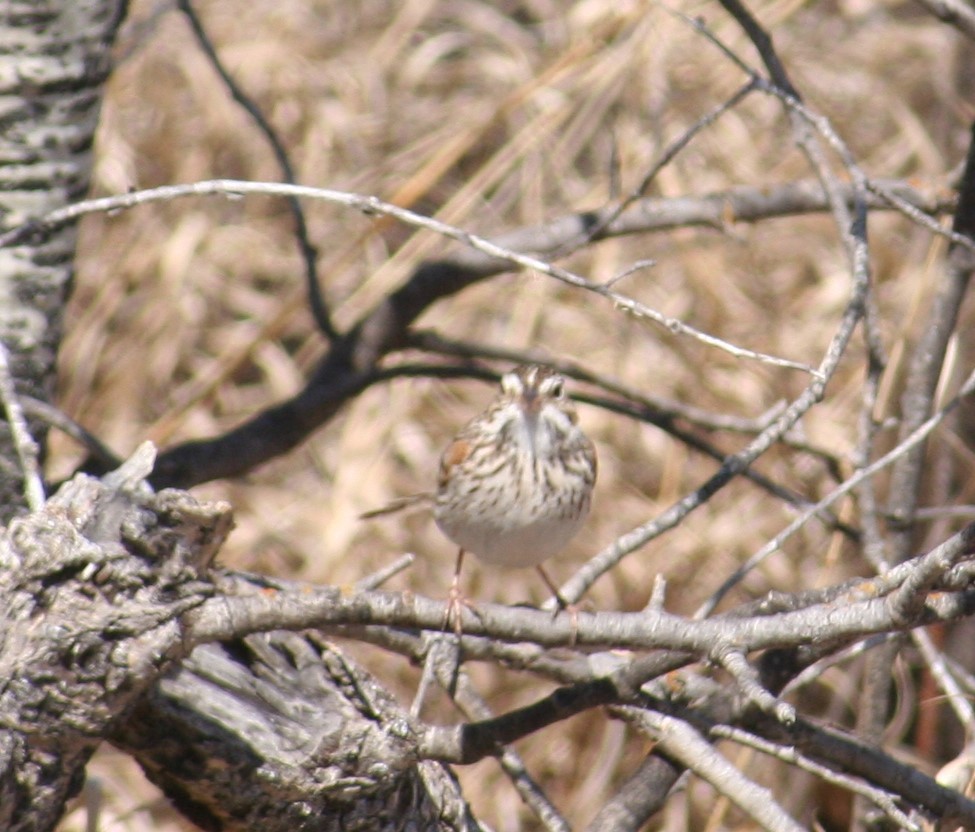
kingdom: Animalia
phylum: Chordata
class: Aves
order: Passeriformes
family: Passerellidae
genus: Pooecetes
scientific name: Pooecetes gramineus
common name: Vesper sparrow
